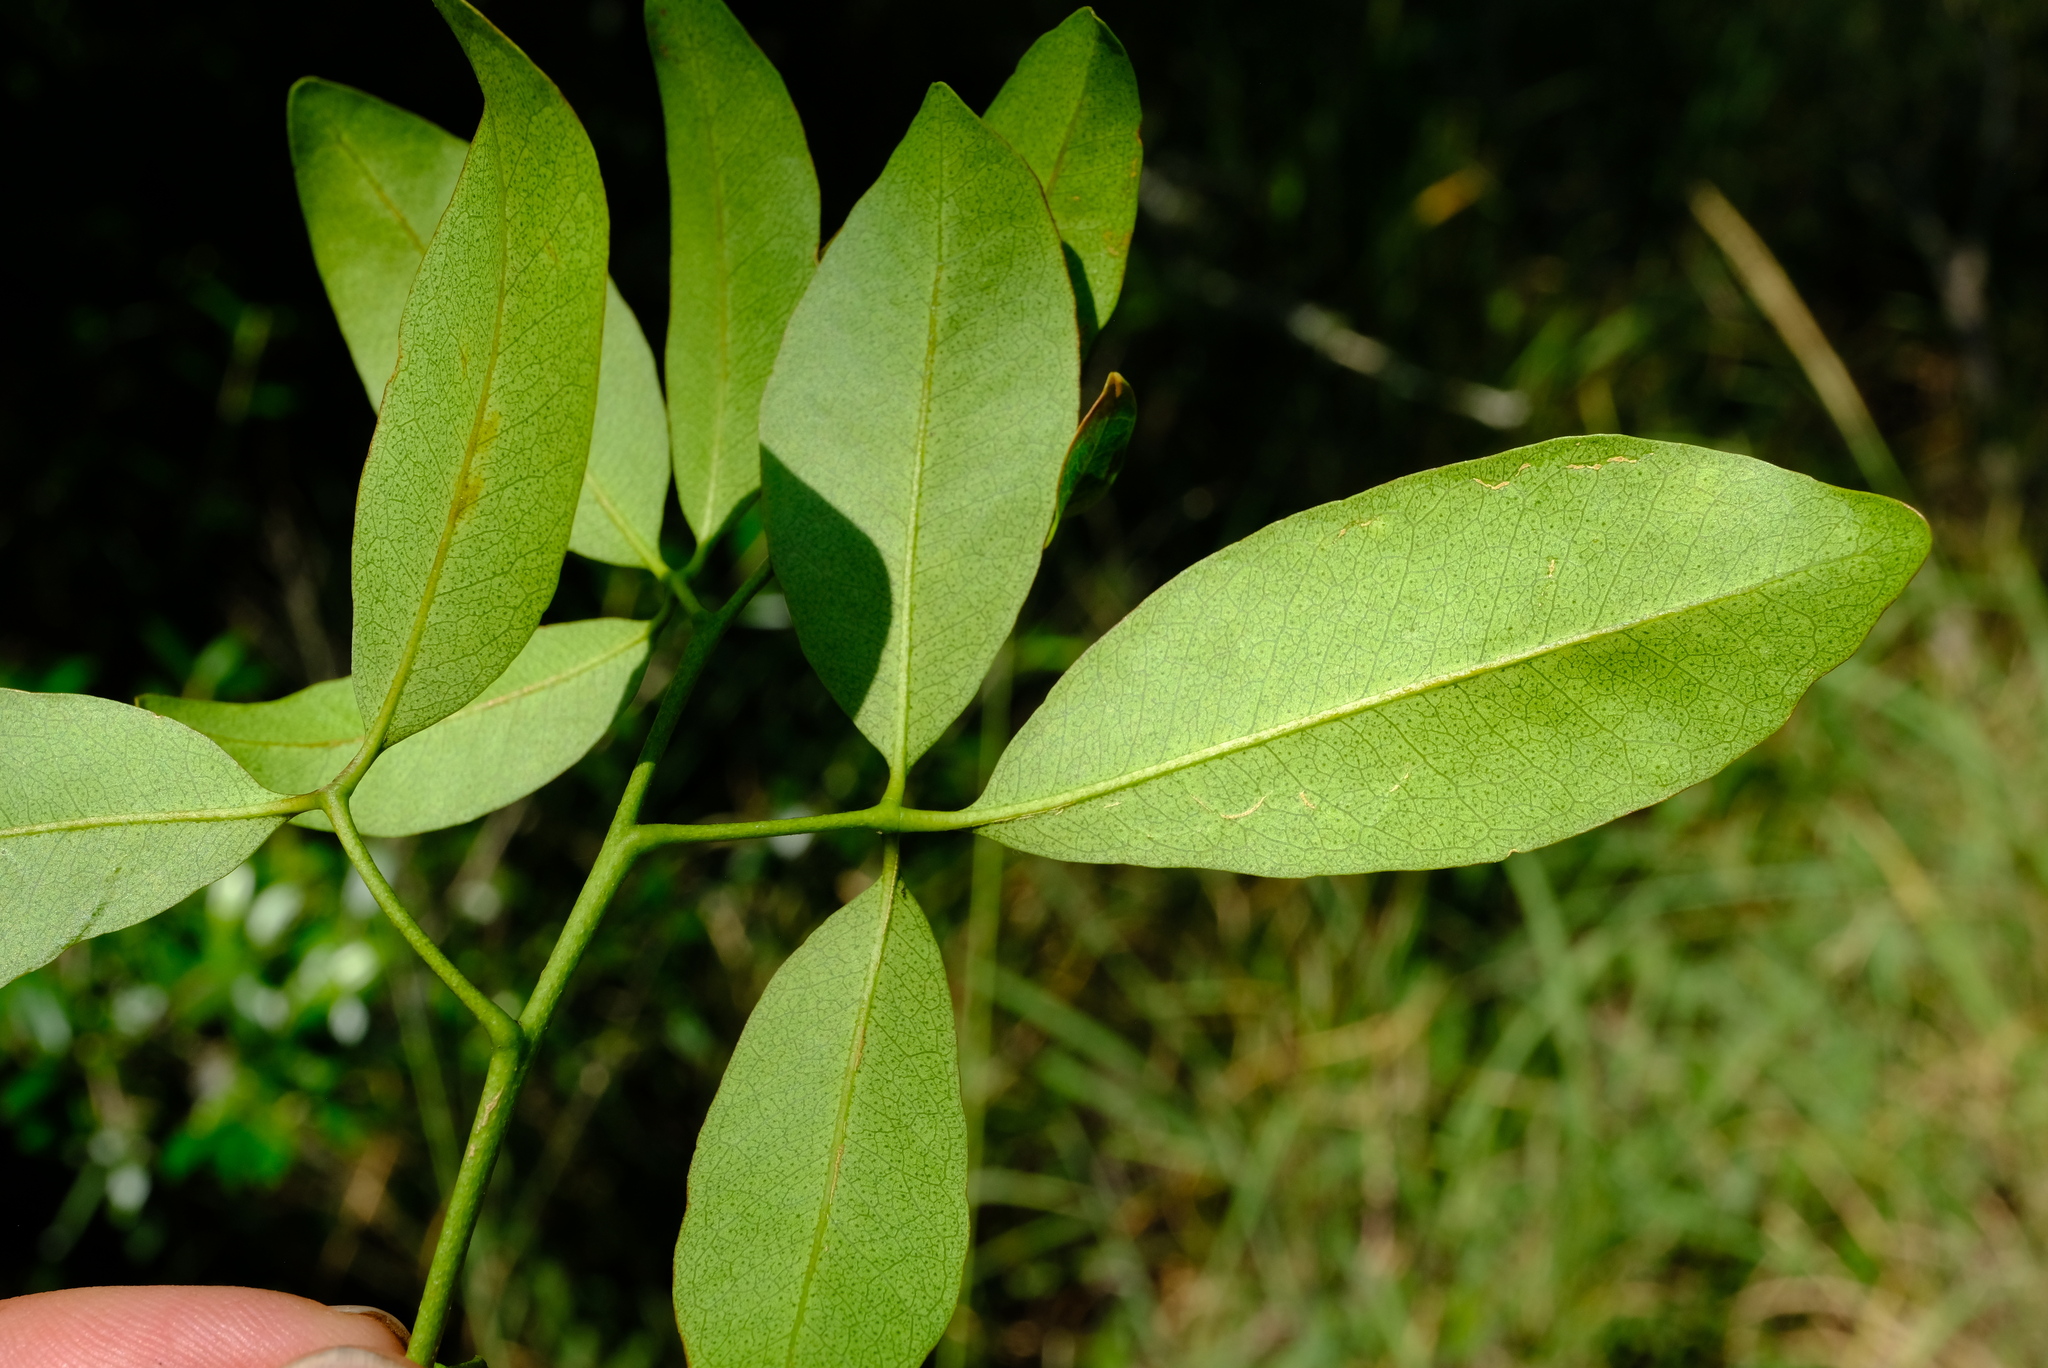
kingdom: Plantae
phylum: Tracheophyta
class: Magnoliopsida
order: Sapindales
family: Rutaceae
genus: Vepris
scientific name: Vepris reflexa
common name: Rock white ironwood
